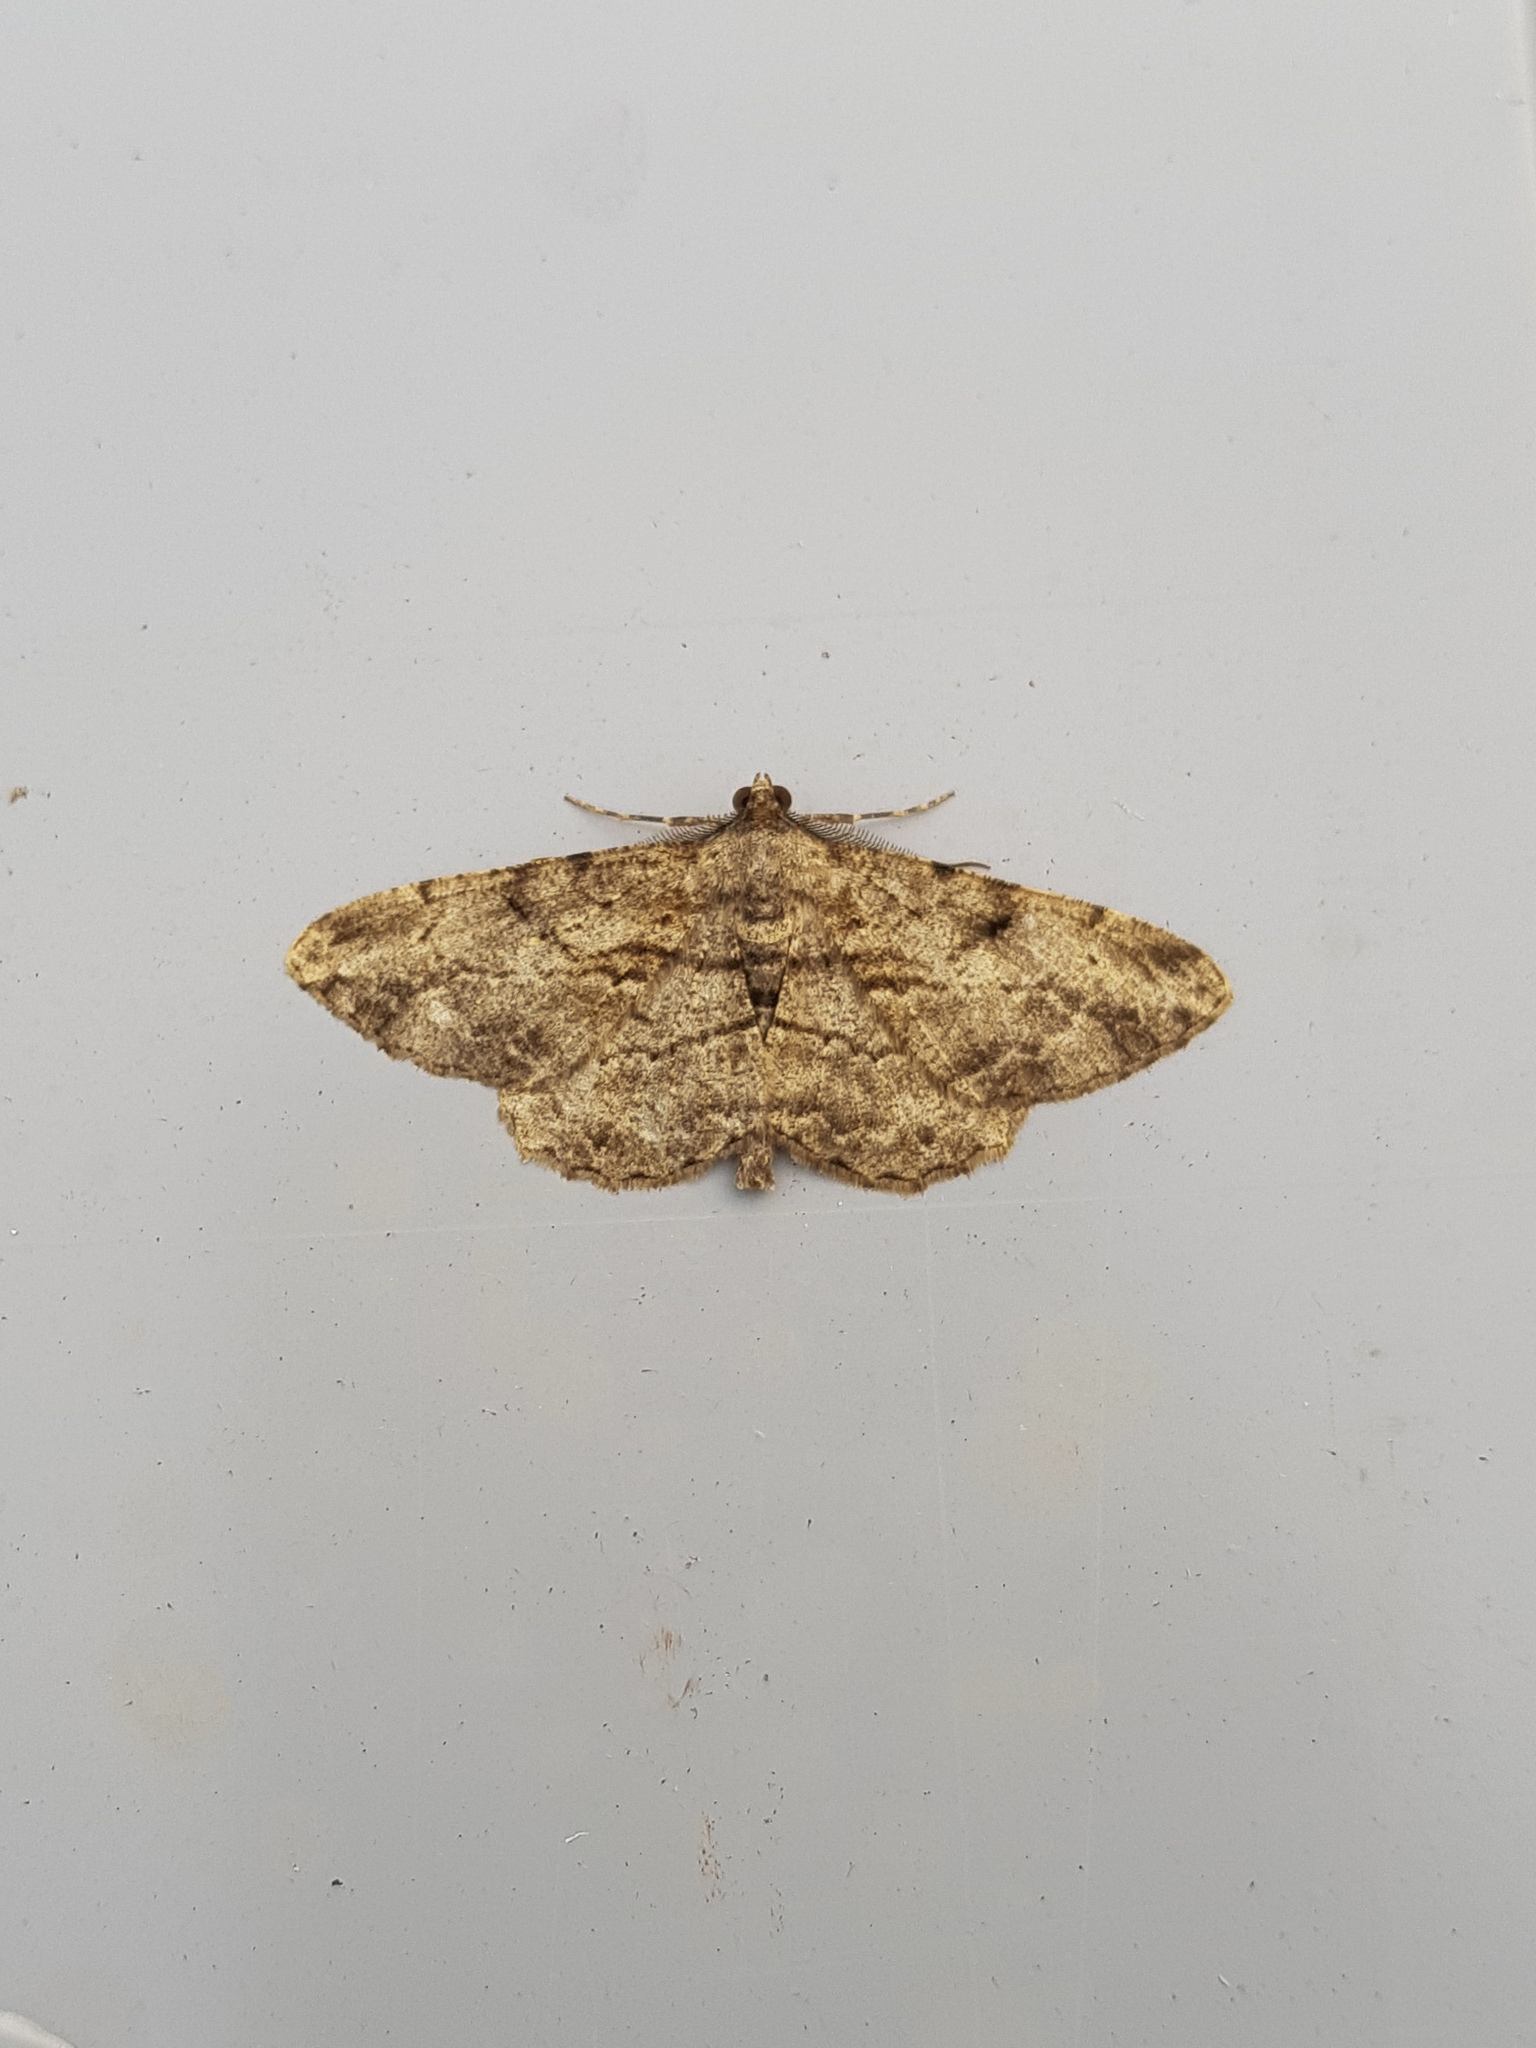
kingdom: Animalia
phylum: Arthropoda
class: Insecta
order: Lepidoptera
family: Geometridae
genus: Peribatodes
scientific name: Peribatodes rhomboidaria
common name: Willow beauty
